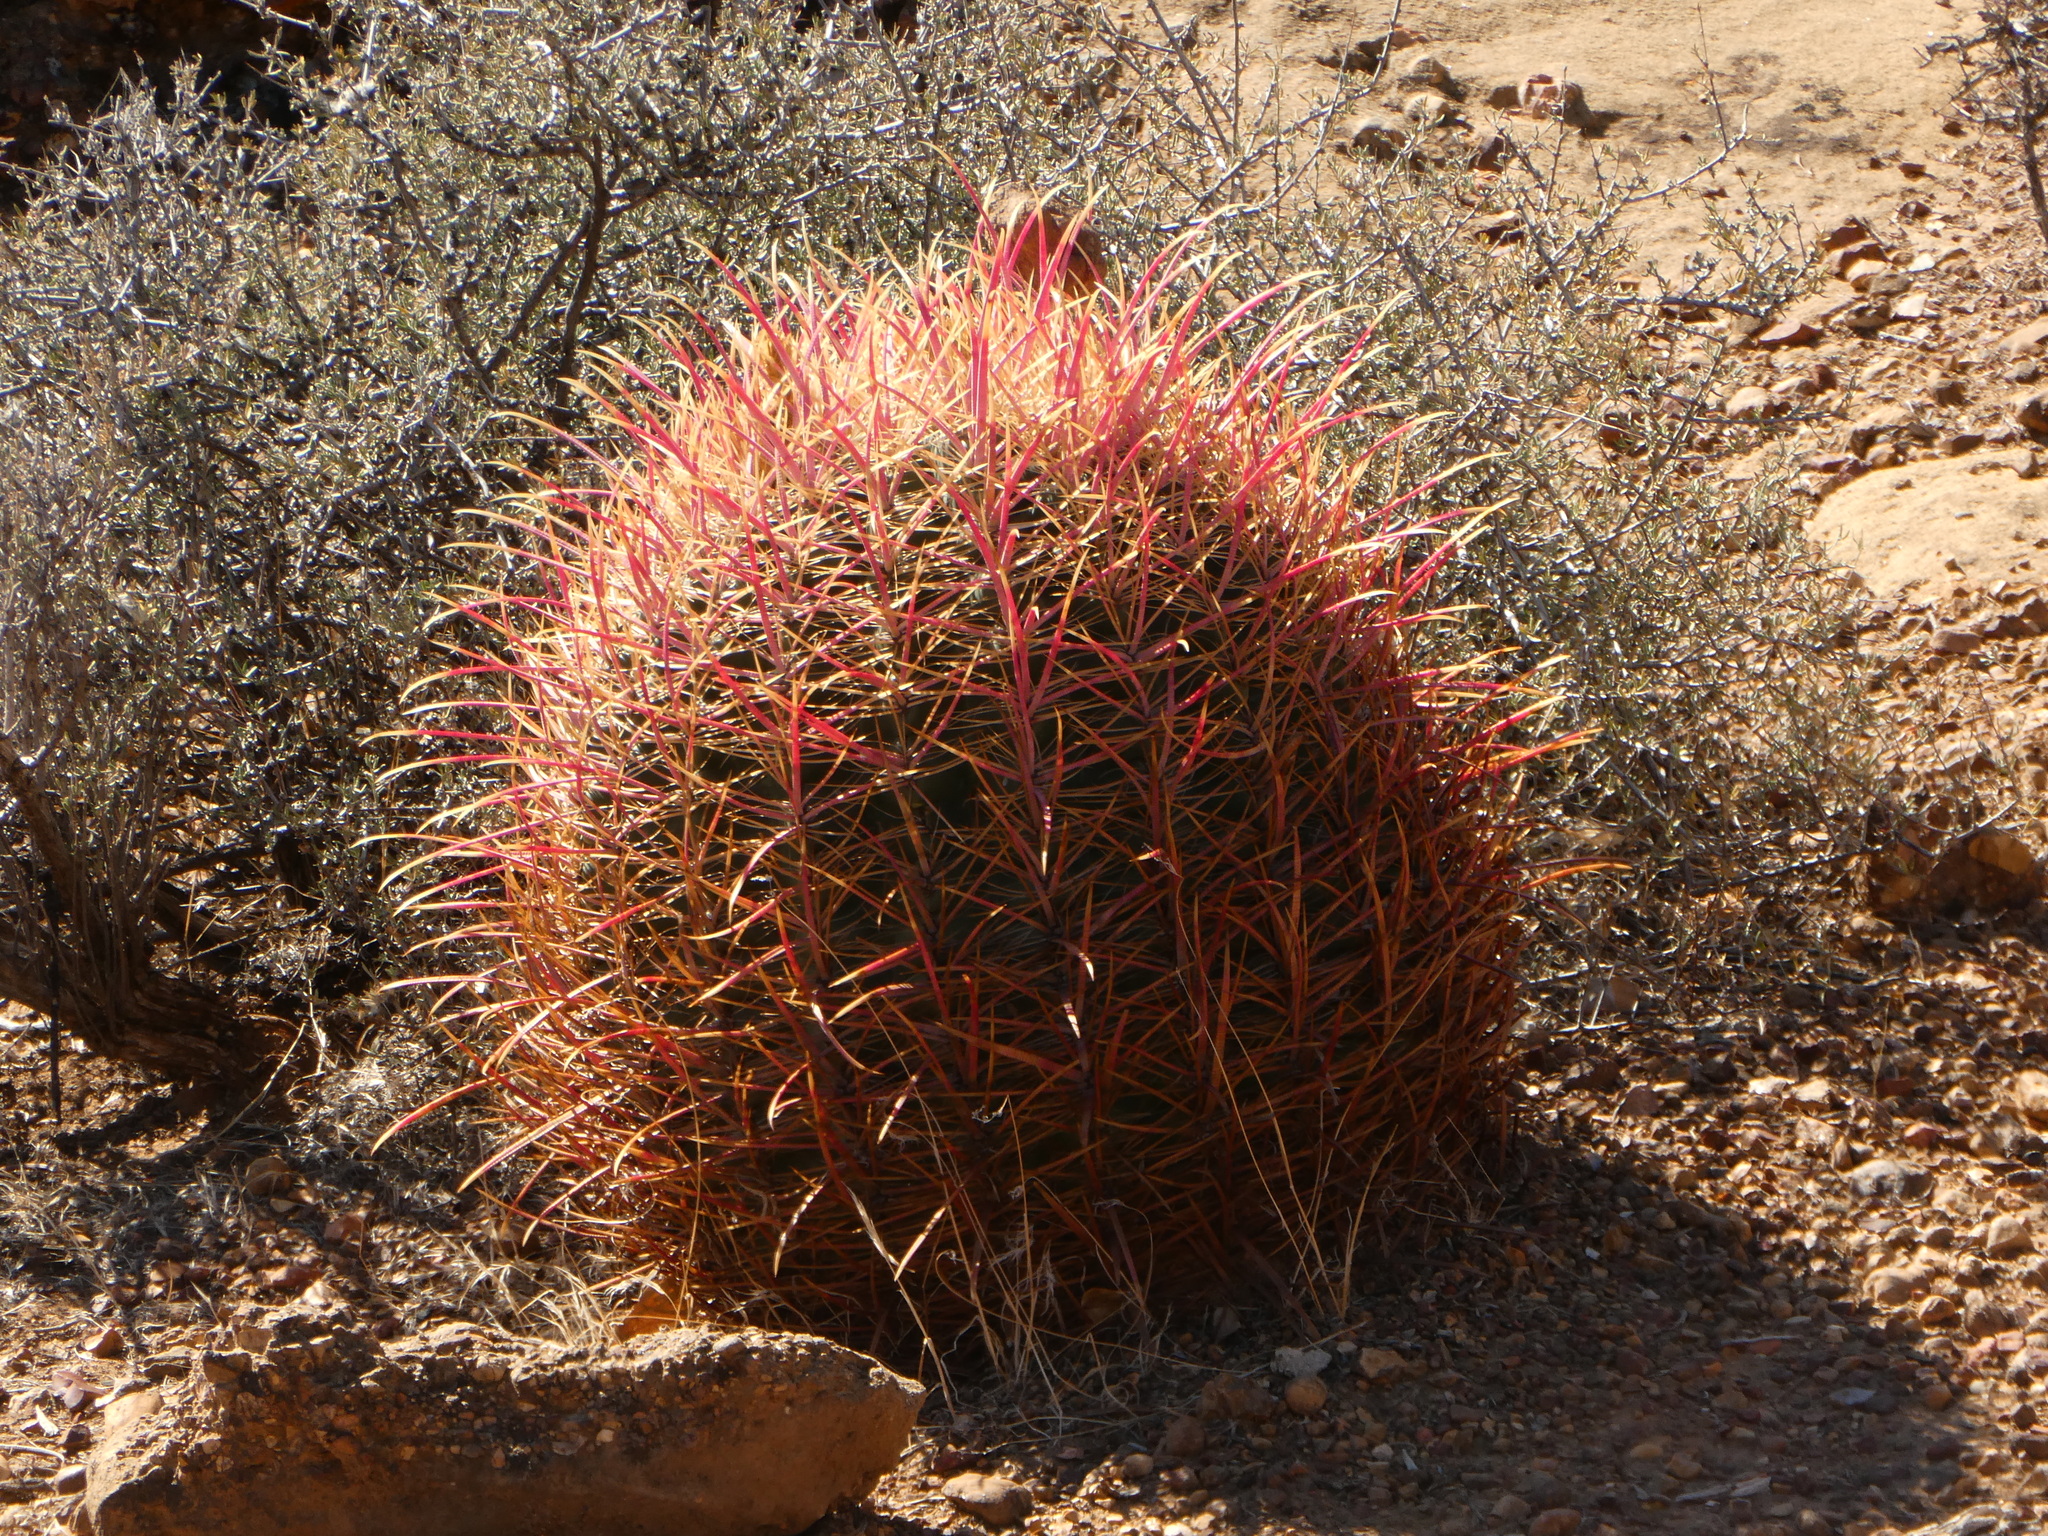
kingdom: Plantae
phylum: Tracheophyta
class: Magnoliopsida
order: Caryophyllales
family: Cactaceae
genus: Ferocactus
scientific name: Ferocactus cylindraceus
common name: California barrel cactus
